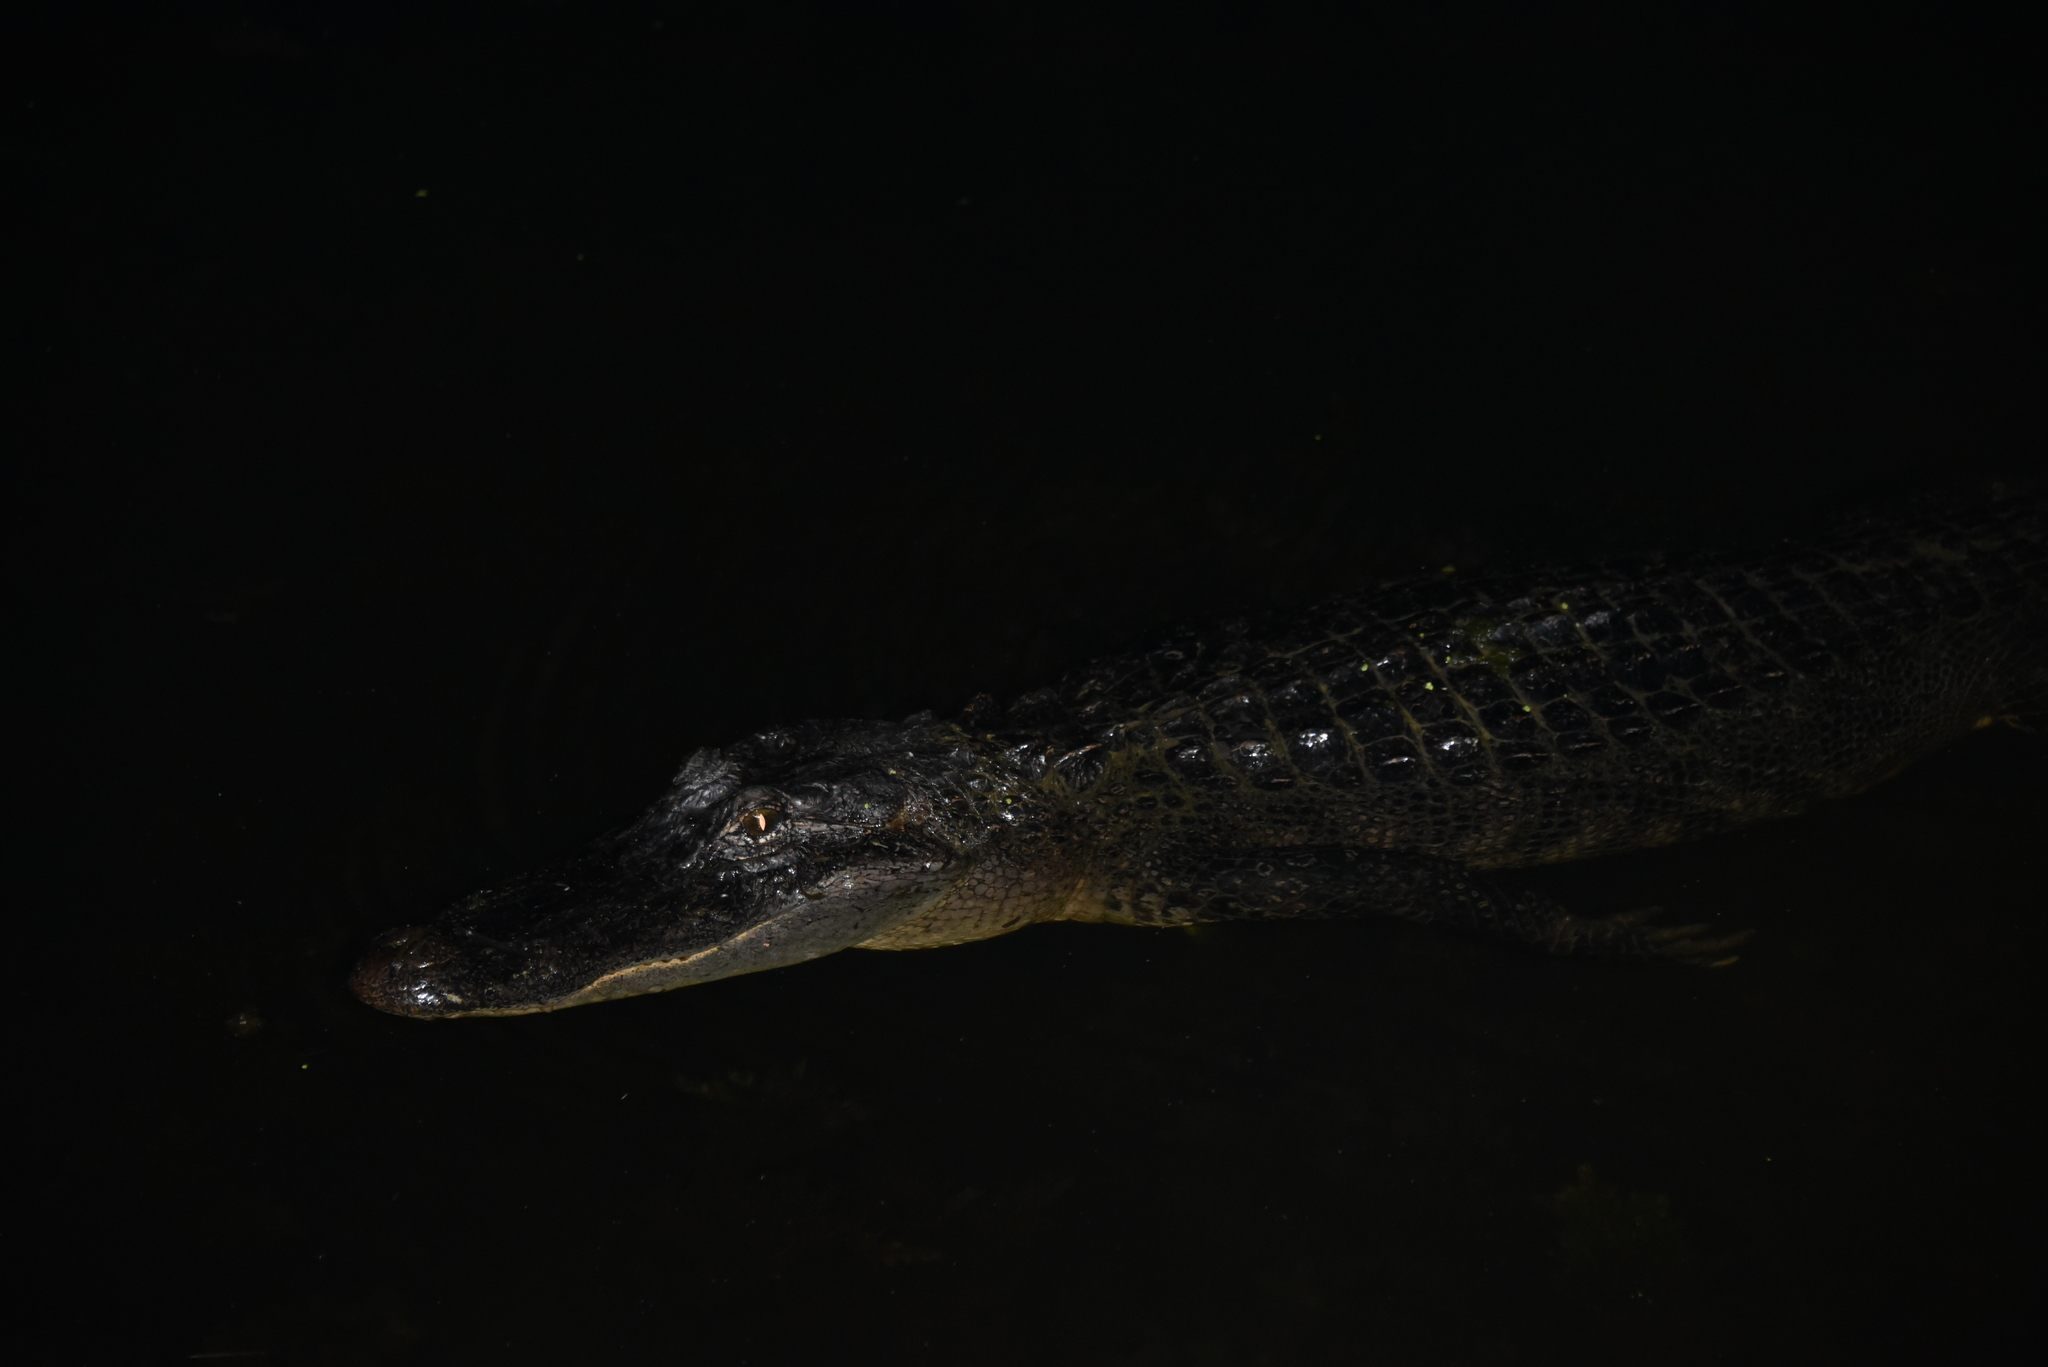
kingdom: Animalia
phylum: Chordata
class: Crocodylia
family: Alligatoridae
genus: Alligator
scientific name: Alligator mississippiensis
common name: American alligator
